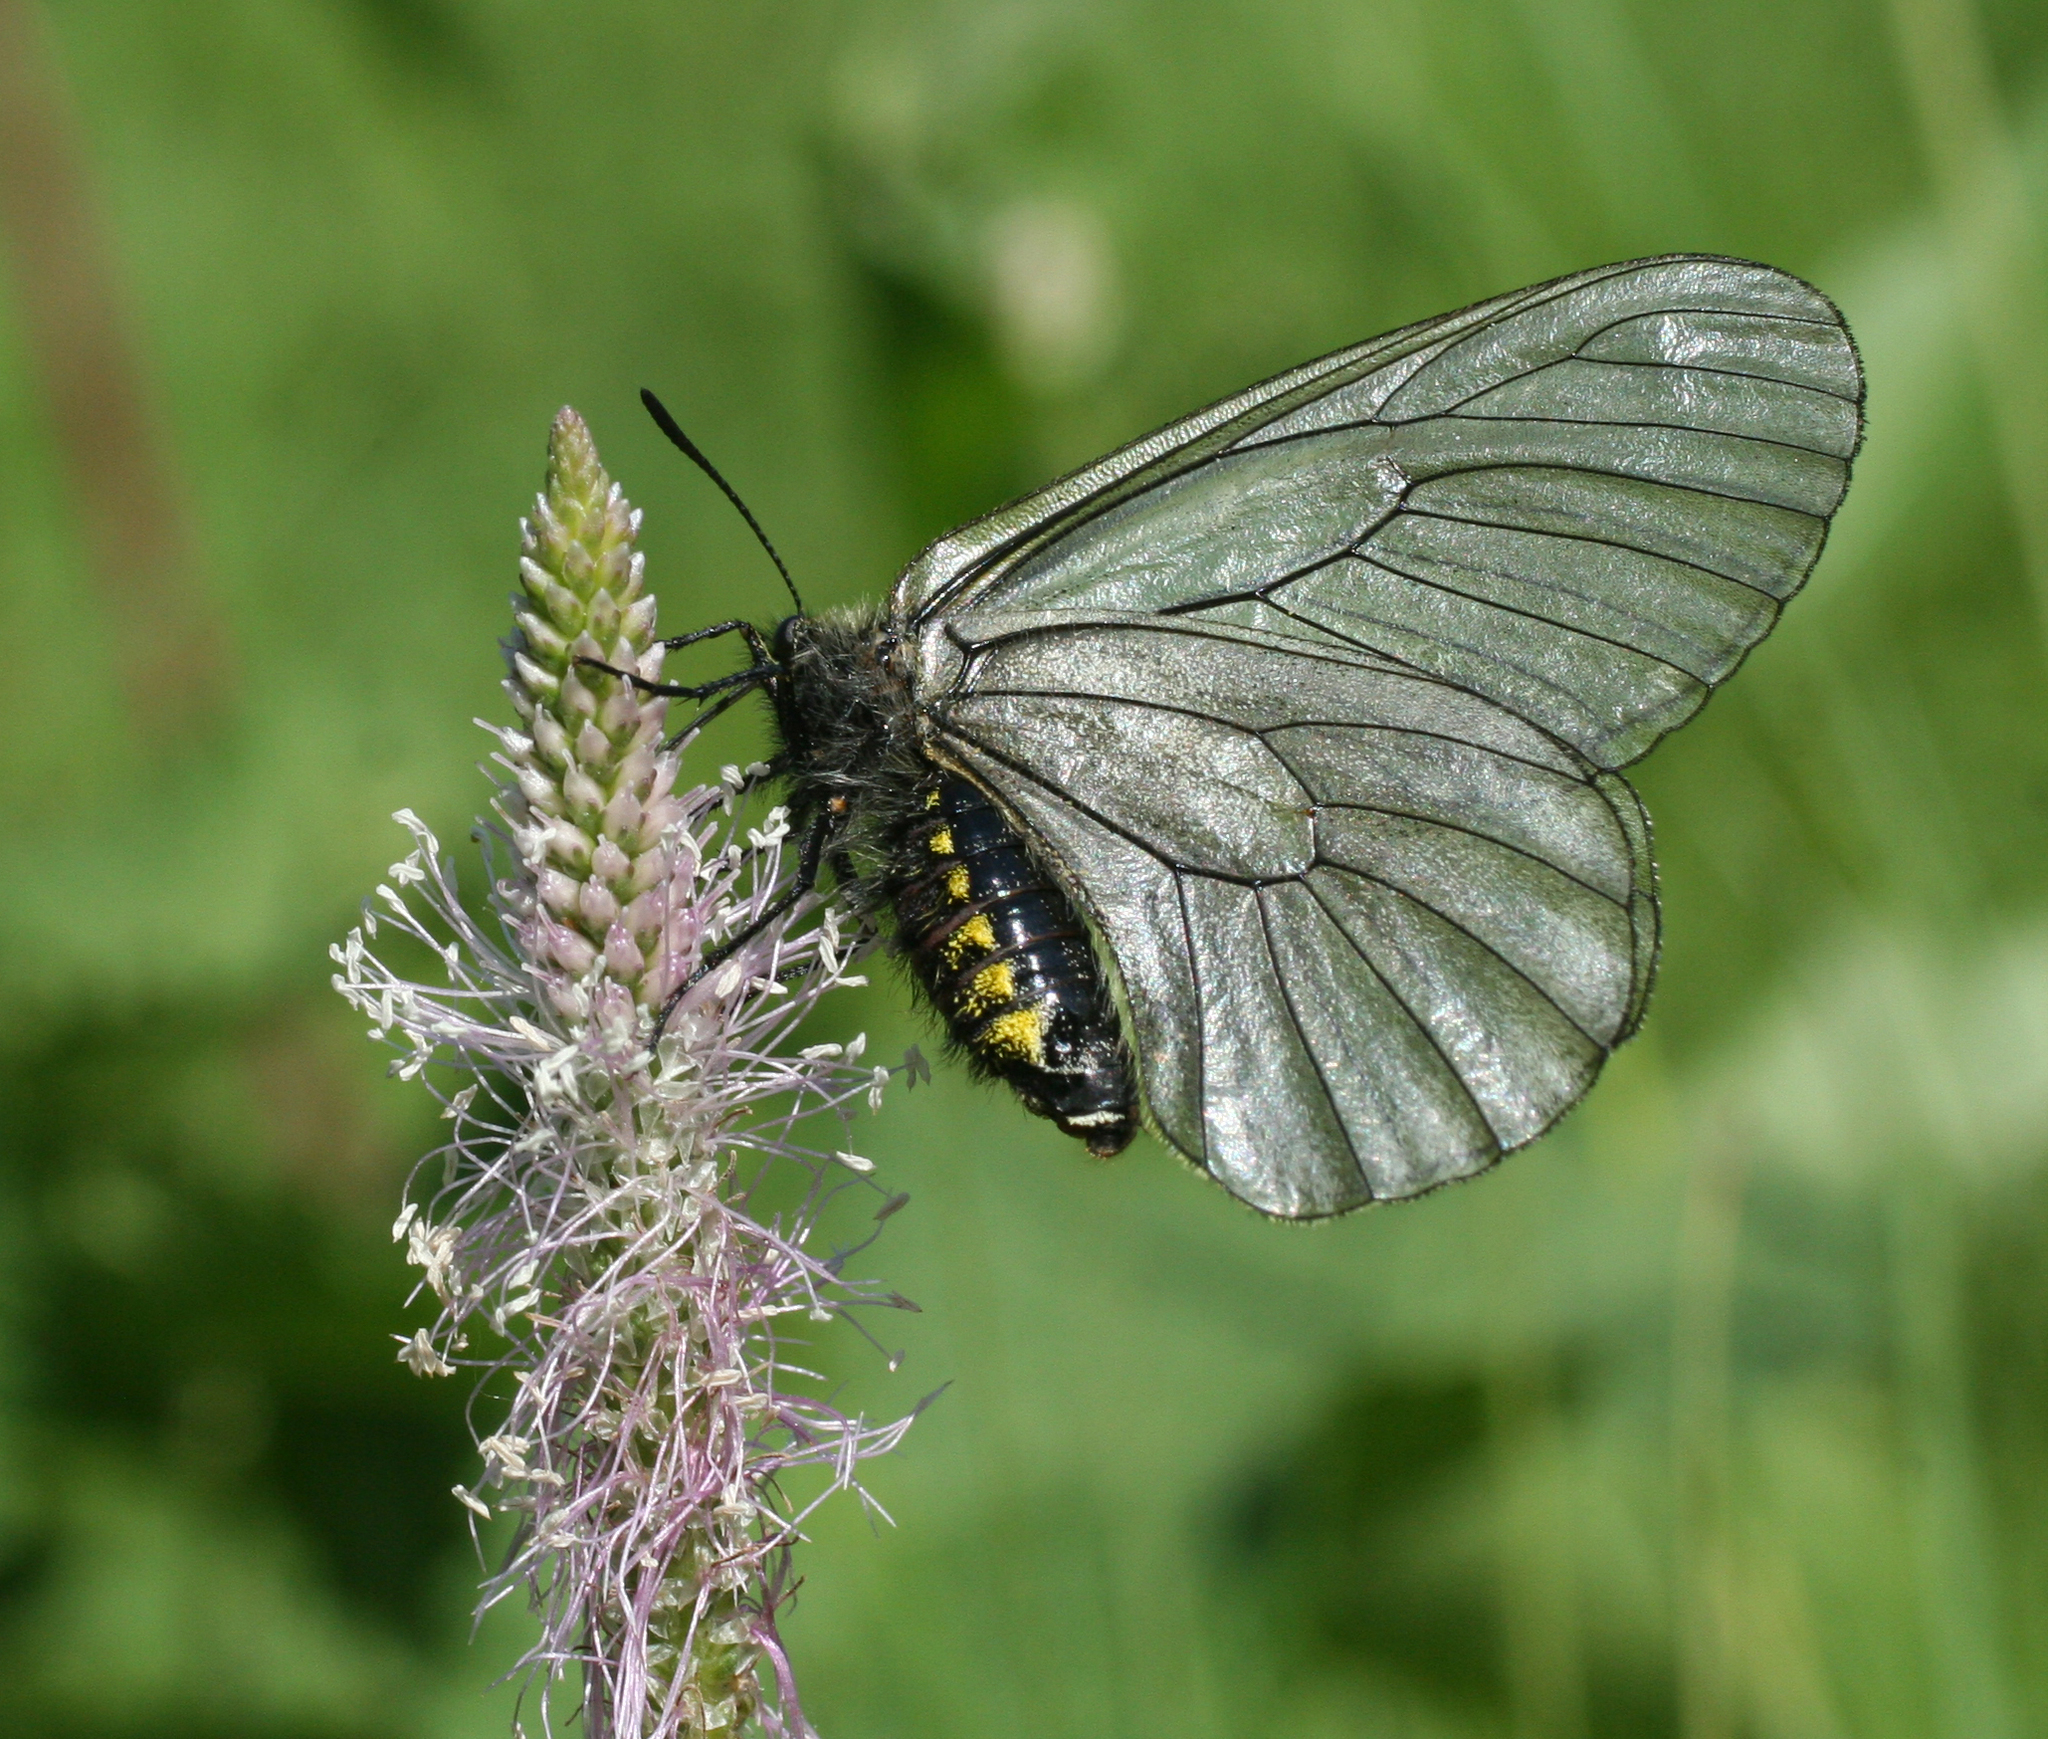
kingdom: Animalia
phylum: Arthropoda
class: Insecta
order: Lepidoptera
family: Papilionidae
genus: Parnassius
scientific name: Parnassius stubbendorfii
